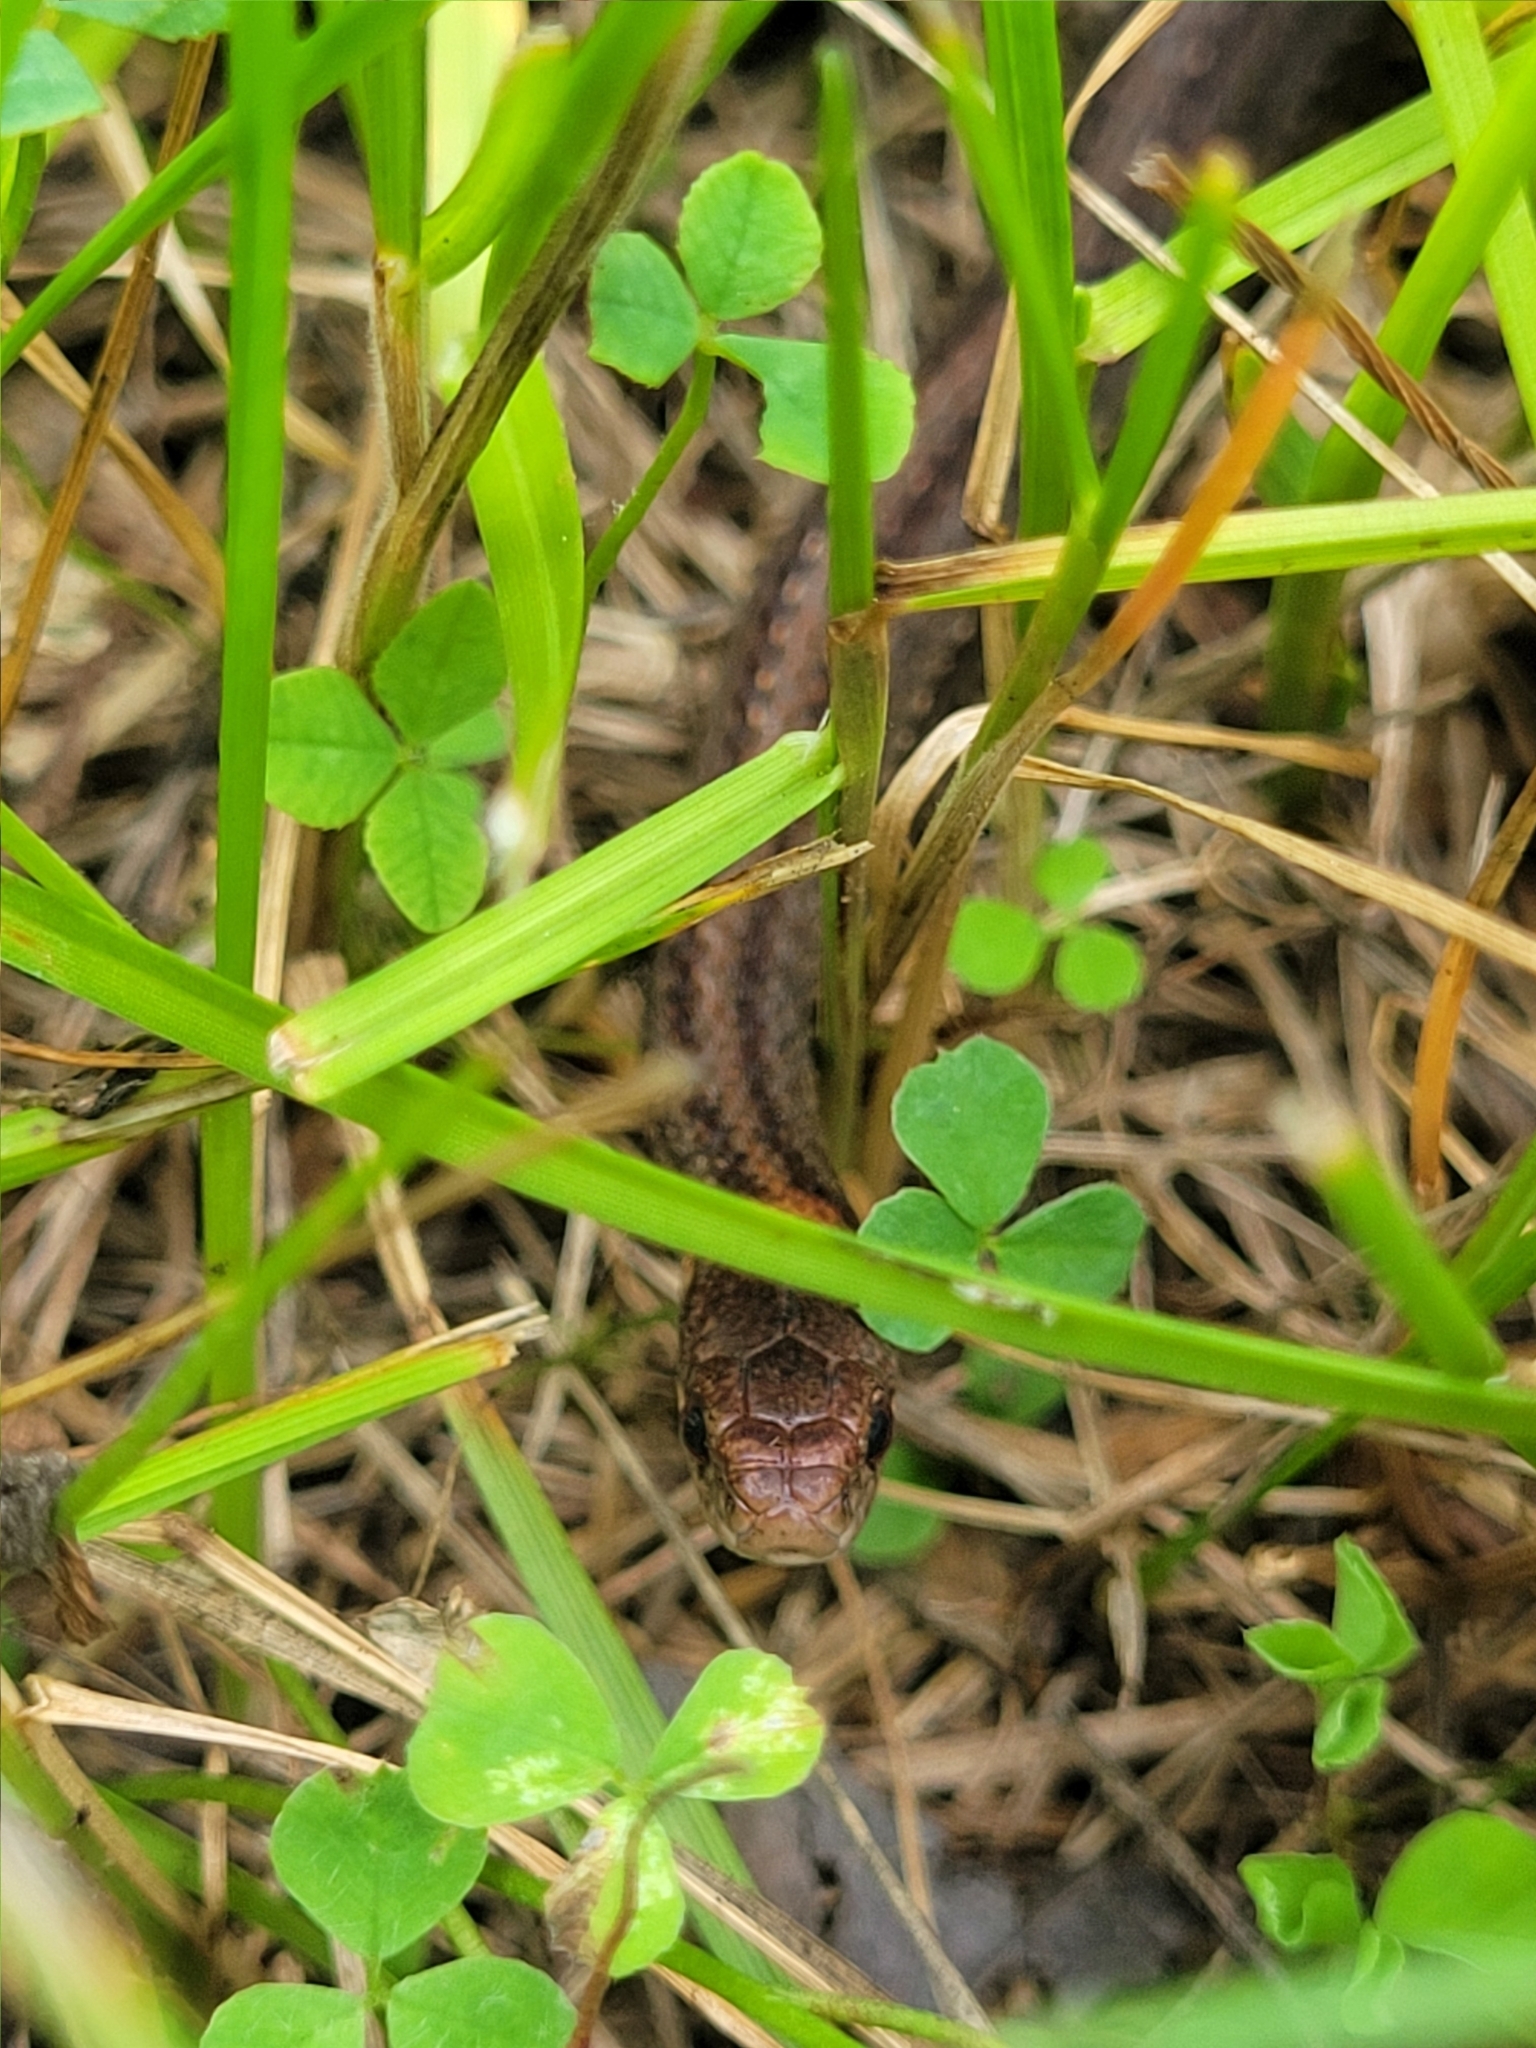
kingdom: Animalia
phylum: Chordata
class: Squamata
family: Colubridae
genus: Storeria
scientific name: Storeria occipitomaculata
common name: Redbelly snake
